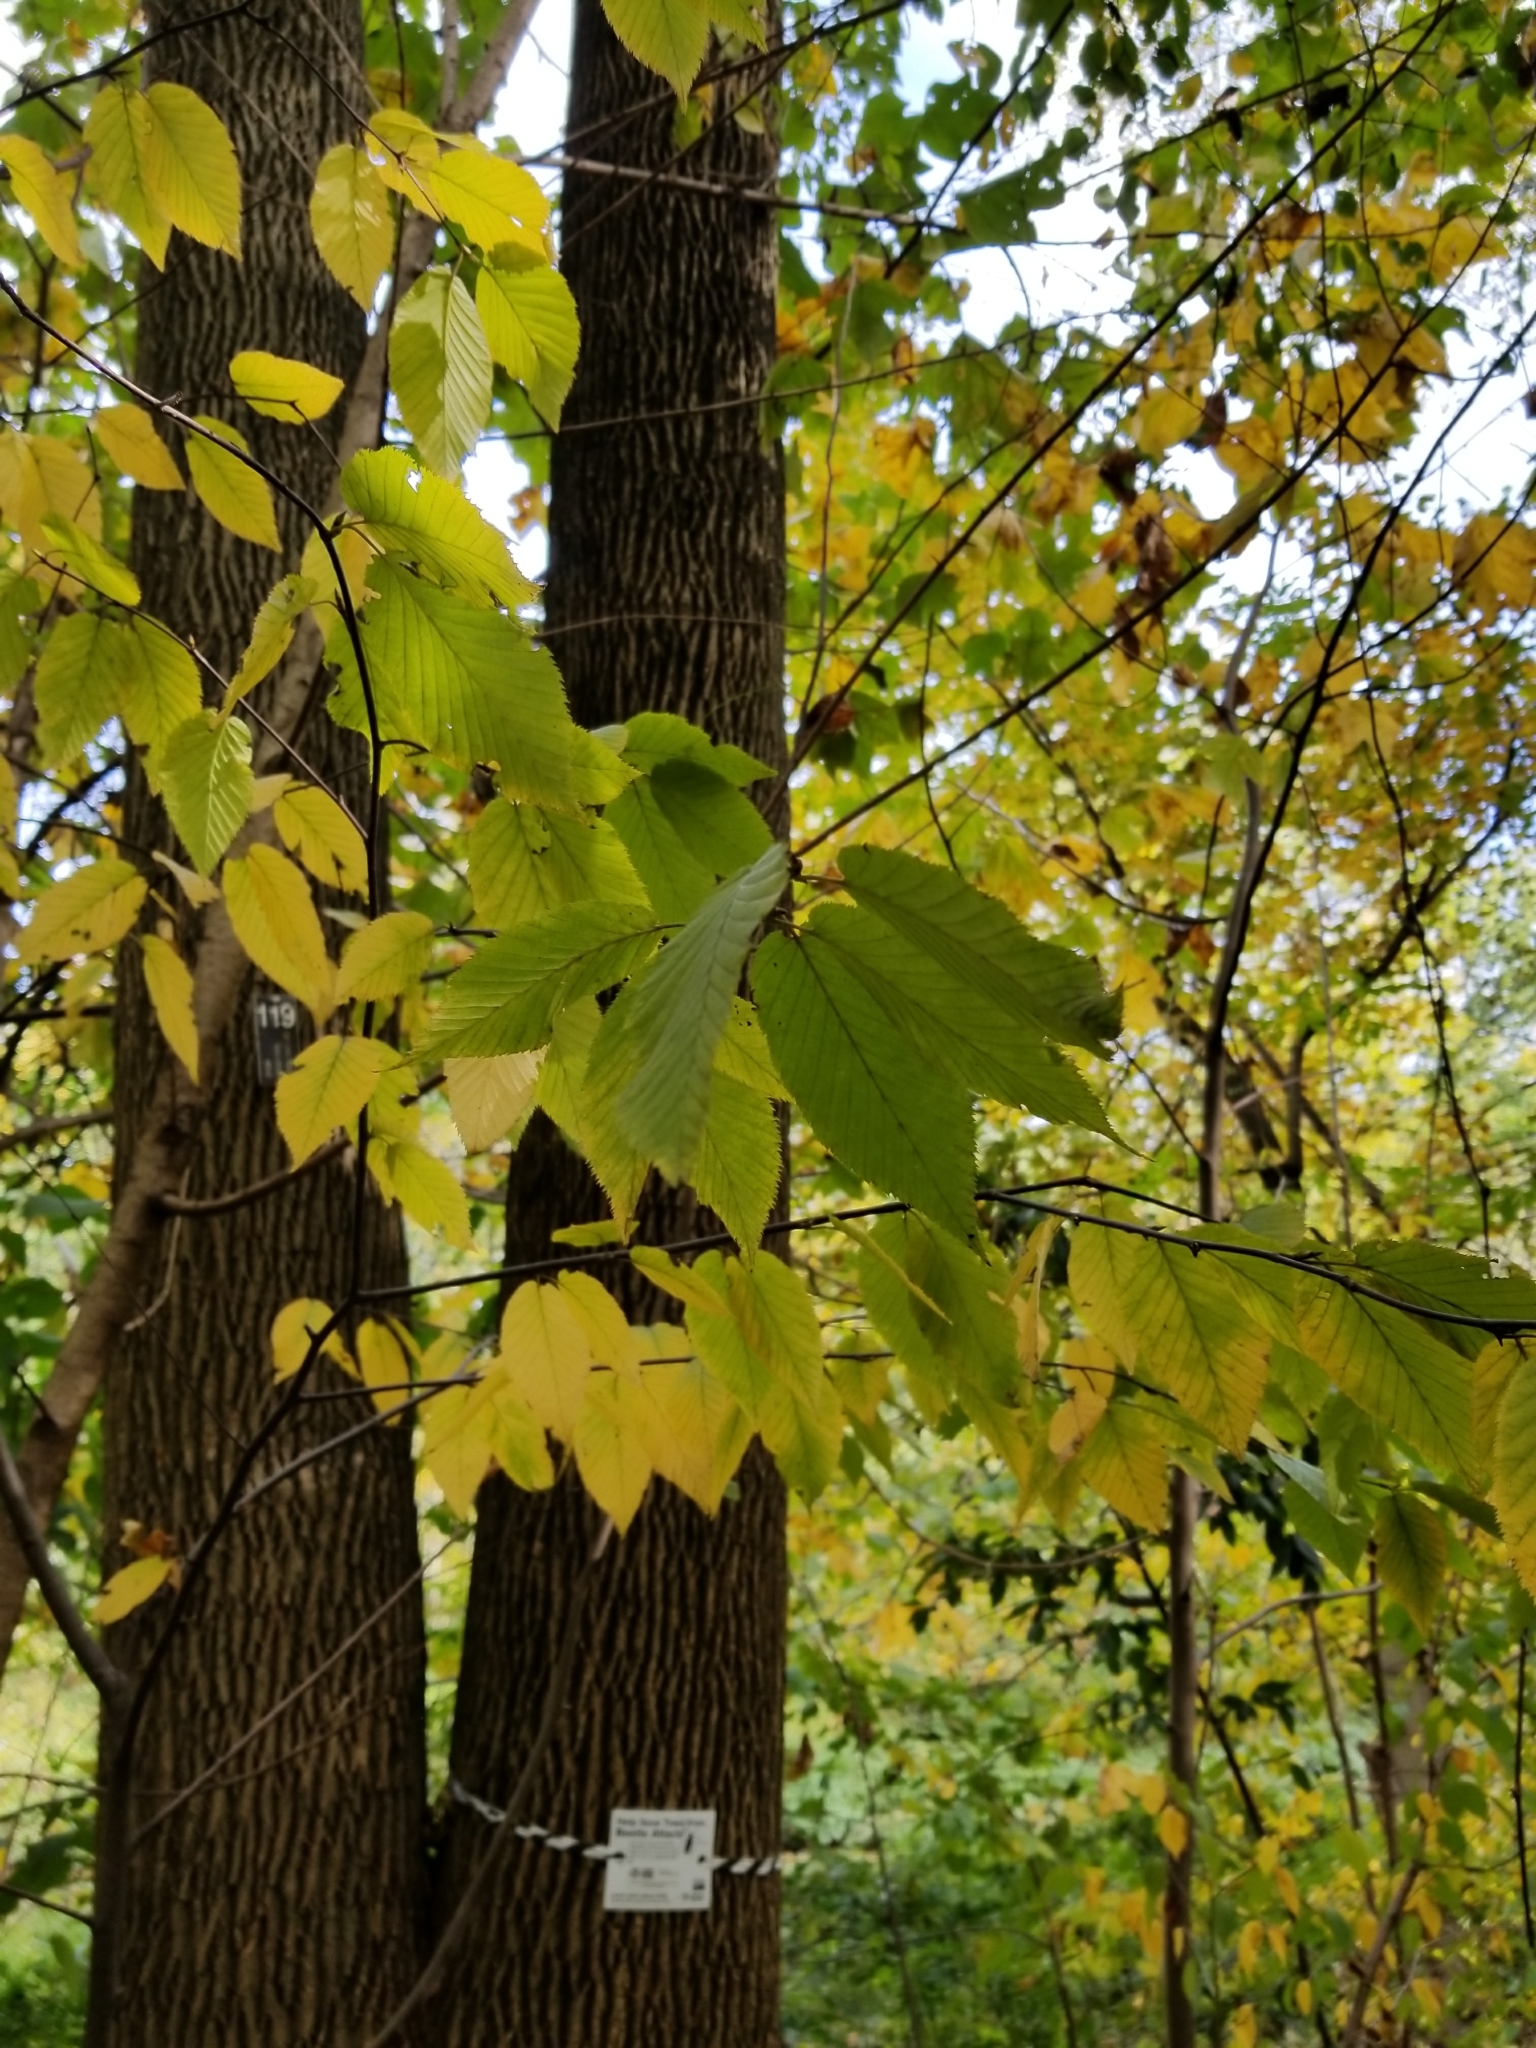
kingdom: Plantae
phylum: Tracheophyta
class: Magnoliopsida
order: Lamiales
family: Oleaceae
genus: Fraxinus
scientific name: Fraxinus americana
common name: White ash
